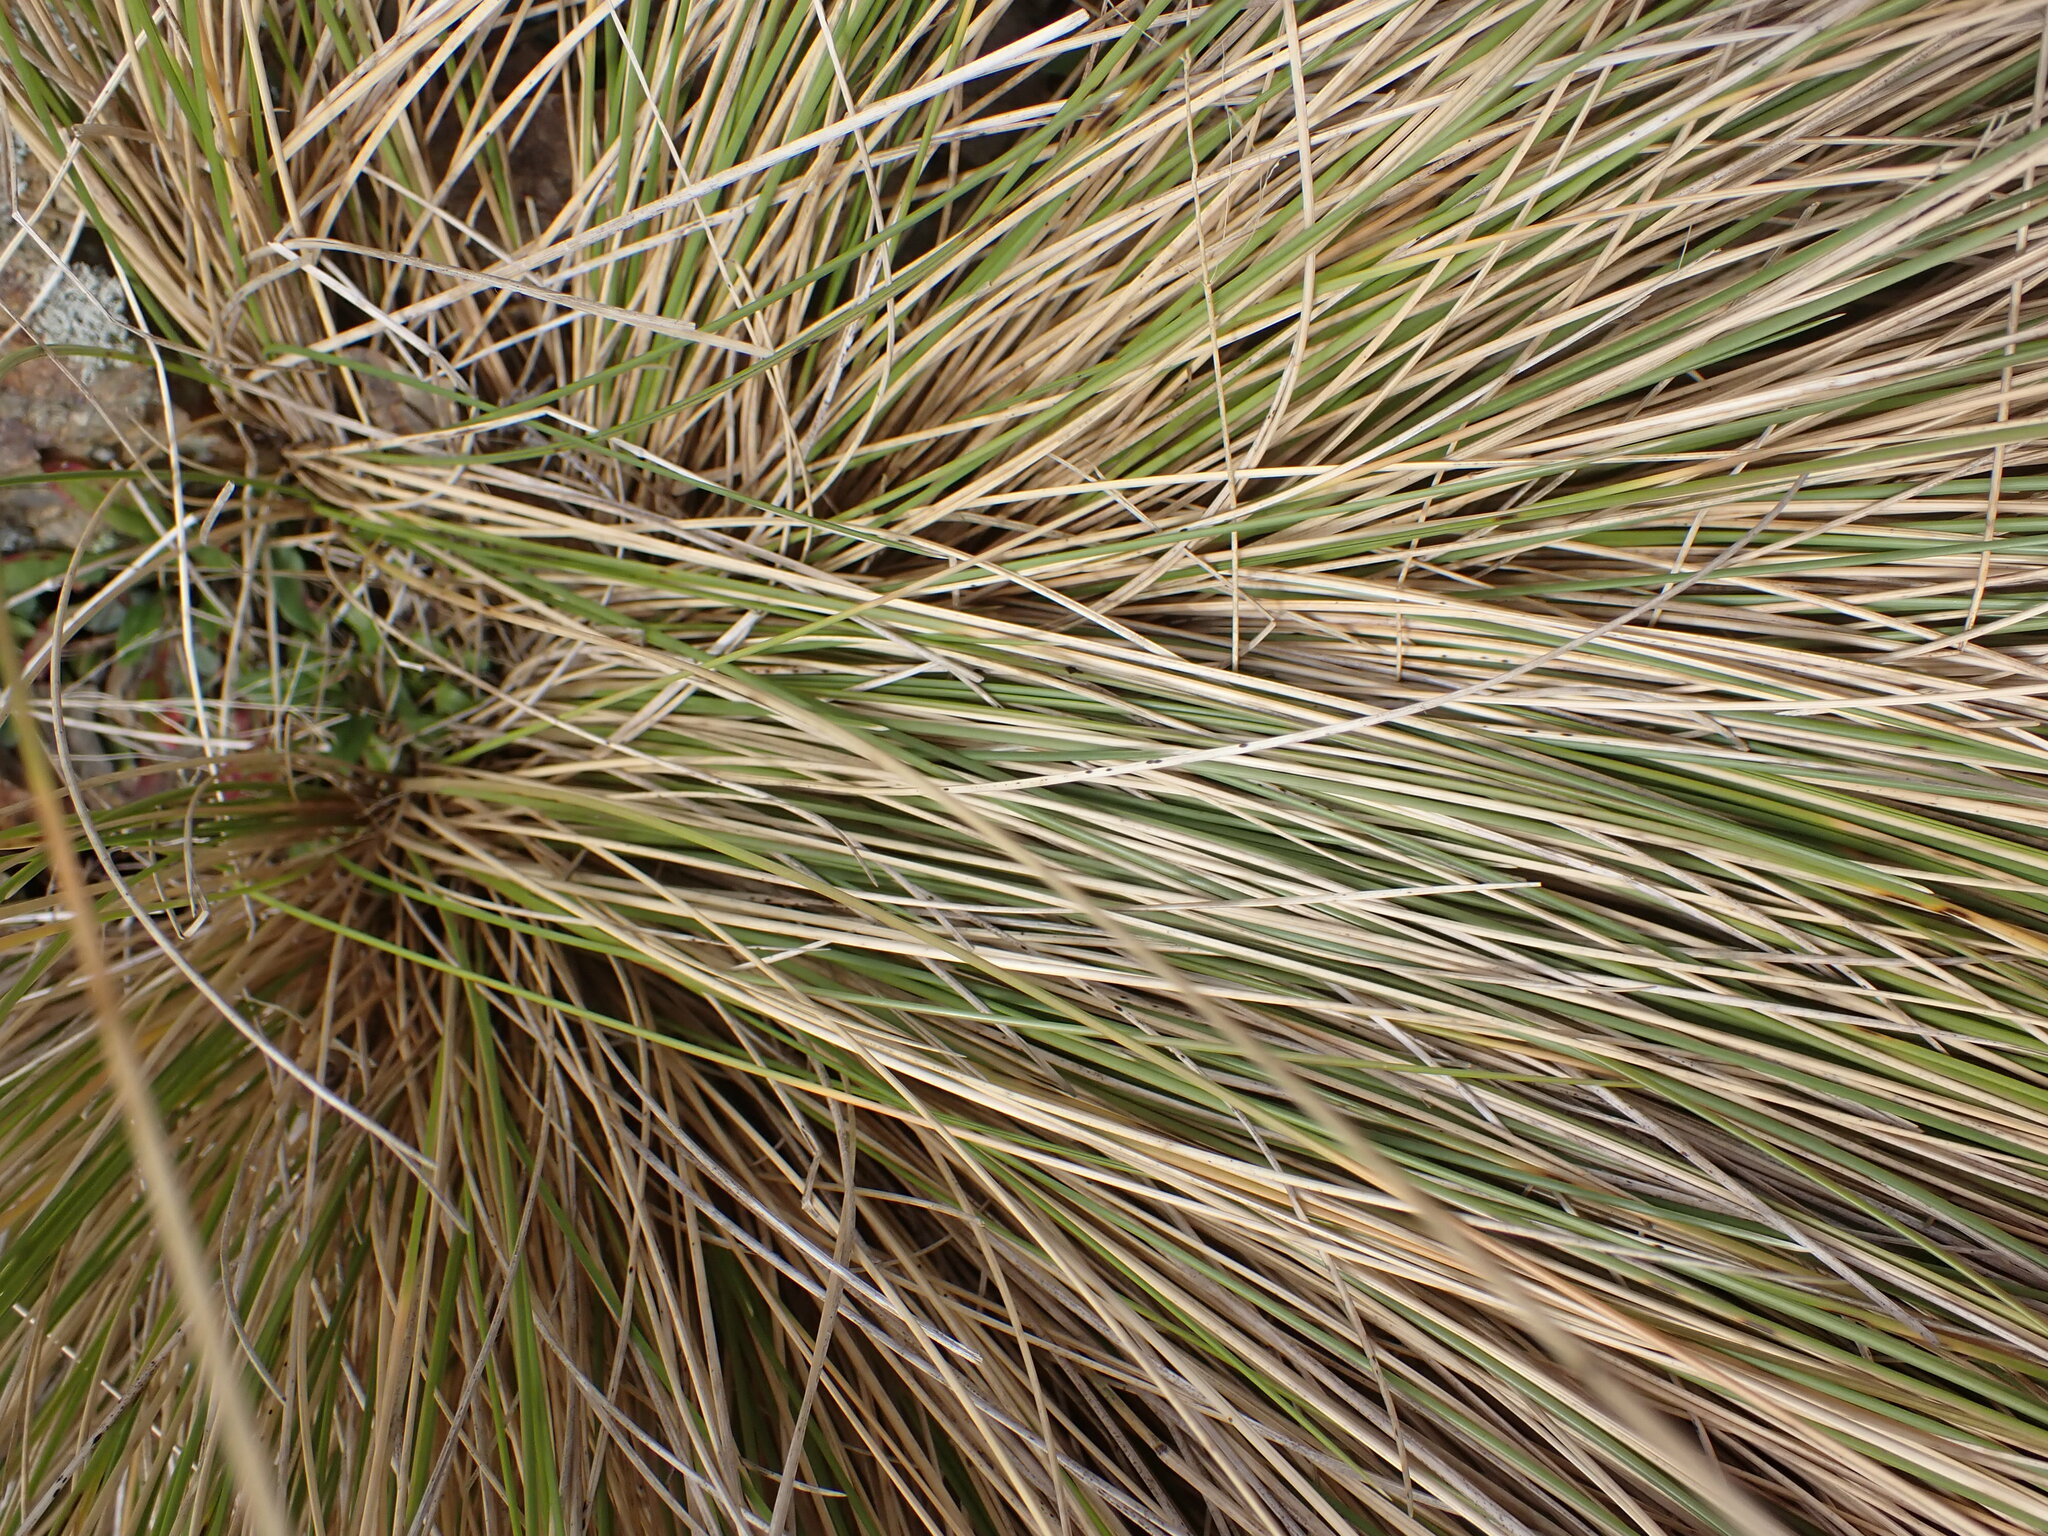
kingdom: Plantae
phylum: Tracheophyta
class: Liliopsida
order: Poales
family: Poaceae
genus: Poa
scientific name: Poa cita
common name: Silver tussock
